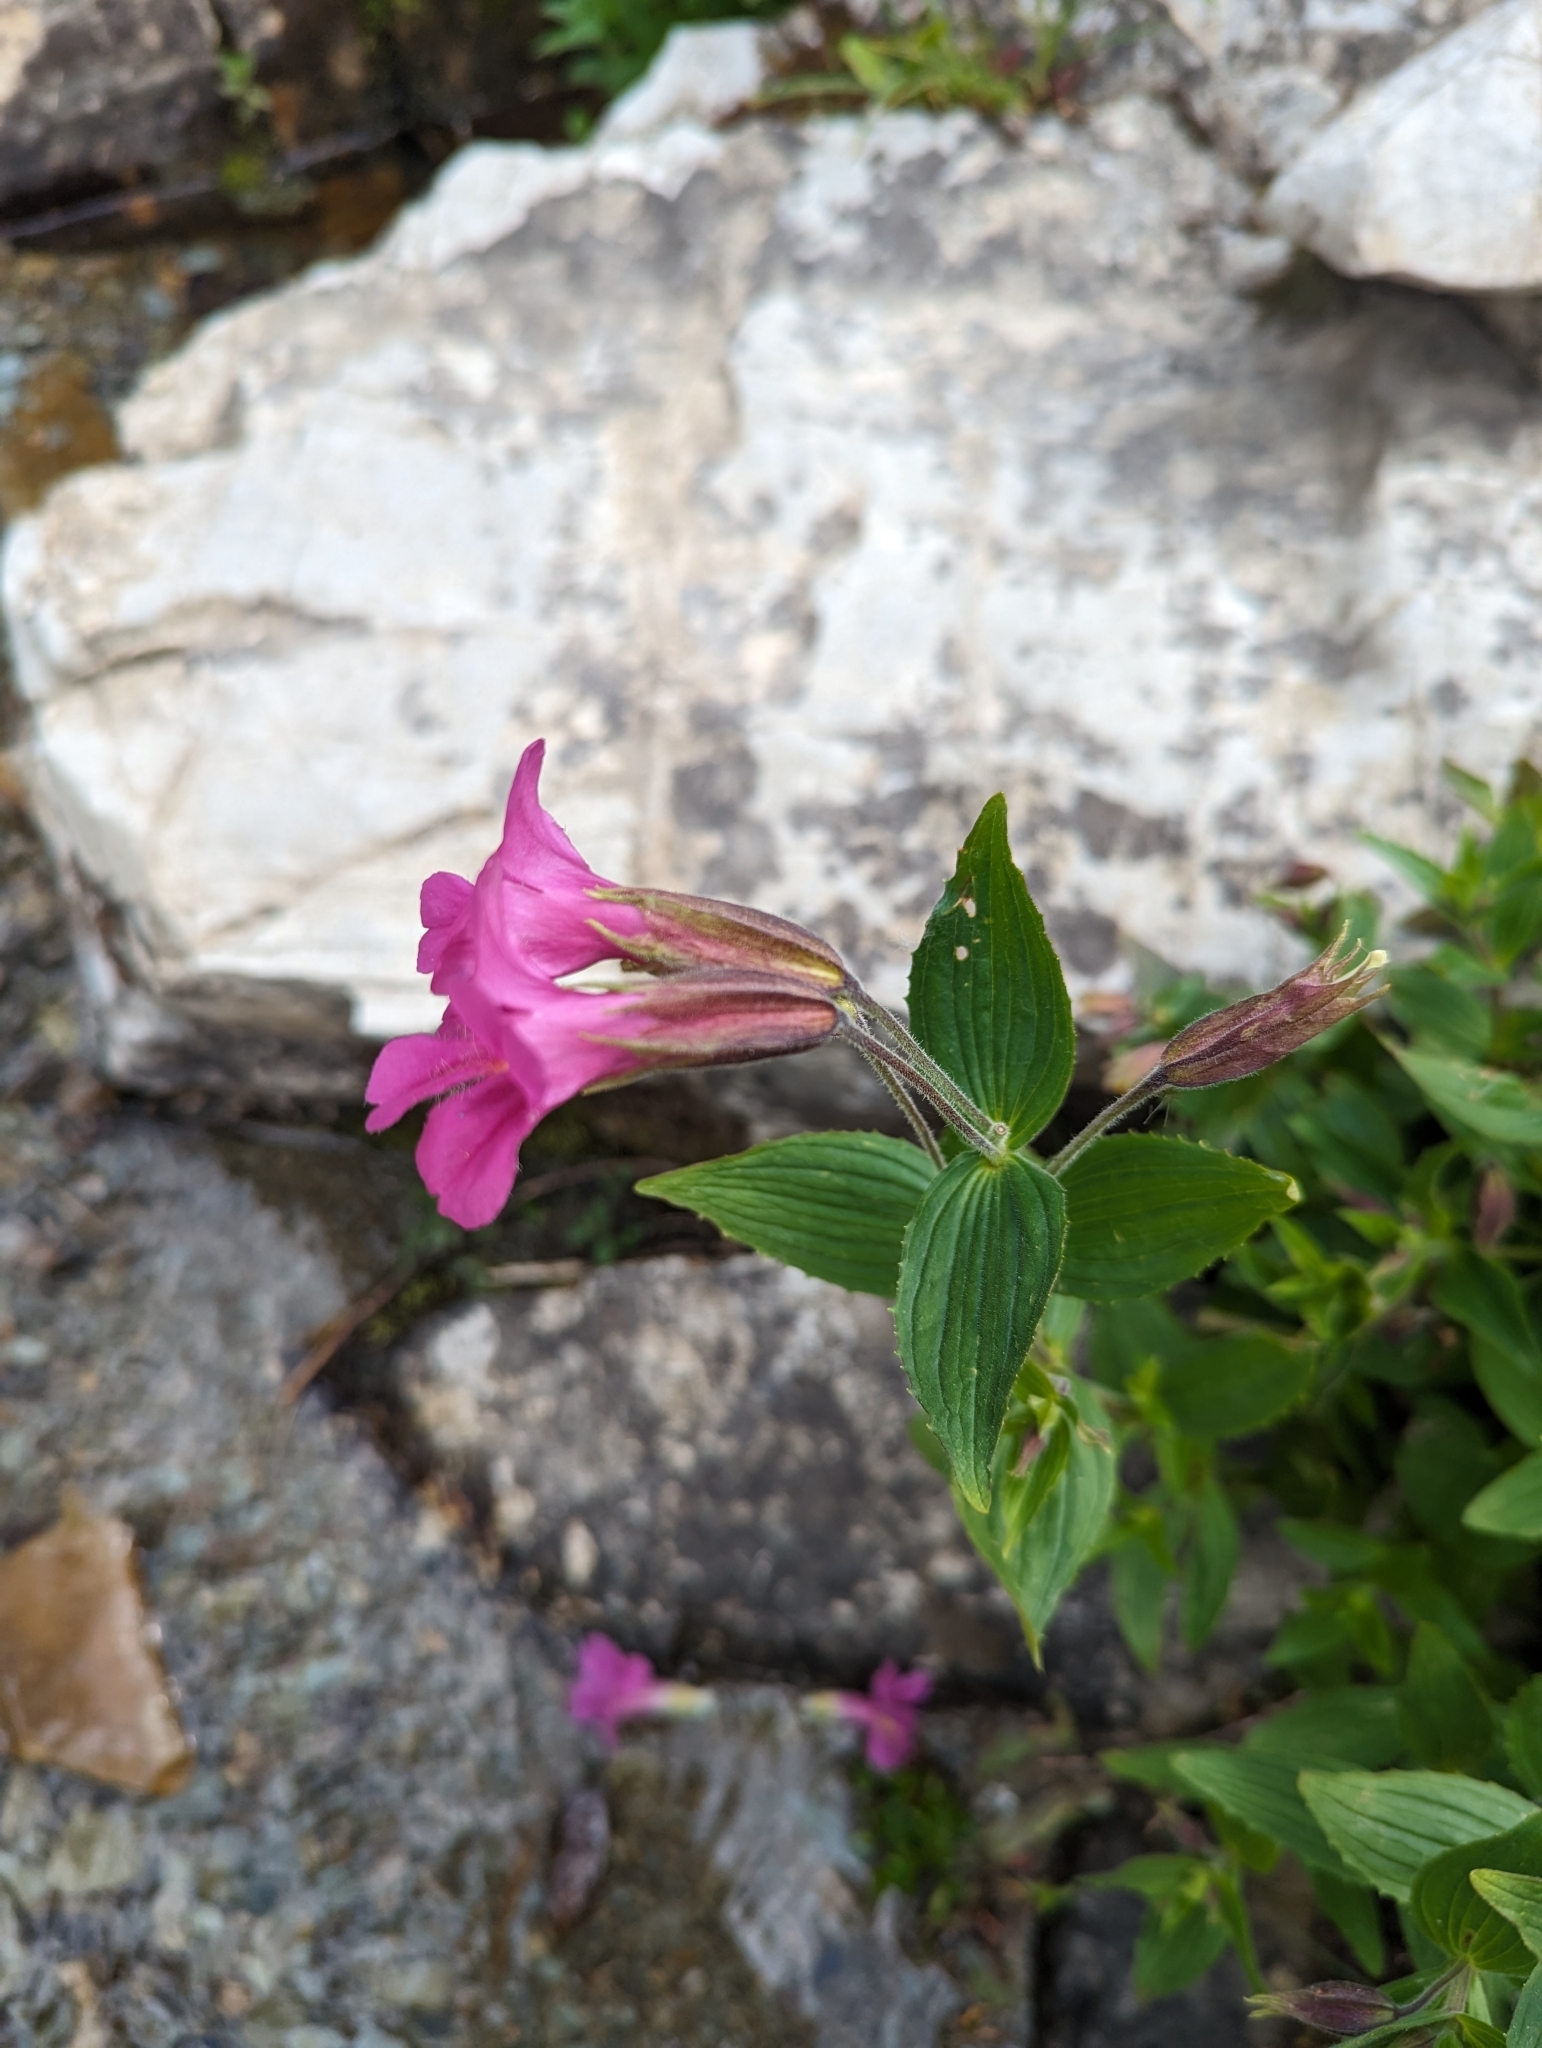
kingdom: Plantae
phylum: Tracheophyta
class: Magnoliopsida
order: Lamiales
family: Phrymaceae
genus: Erythranthe
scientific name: Erythranthe lewisii
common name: Lewis's monkey-flower
